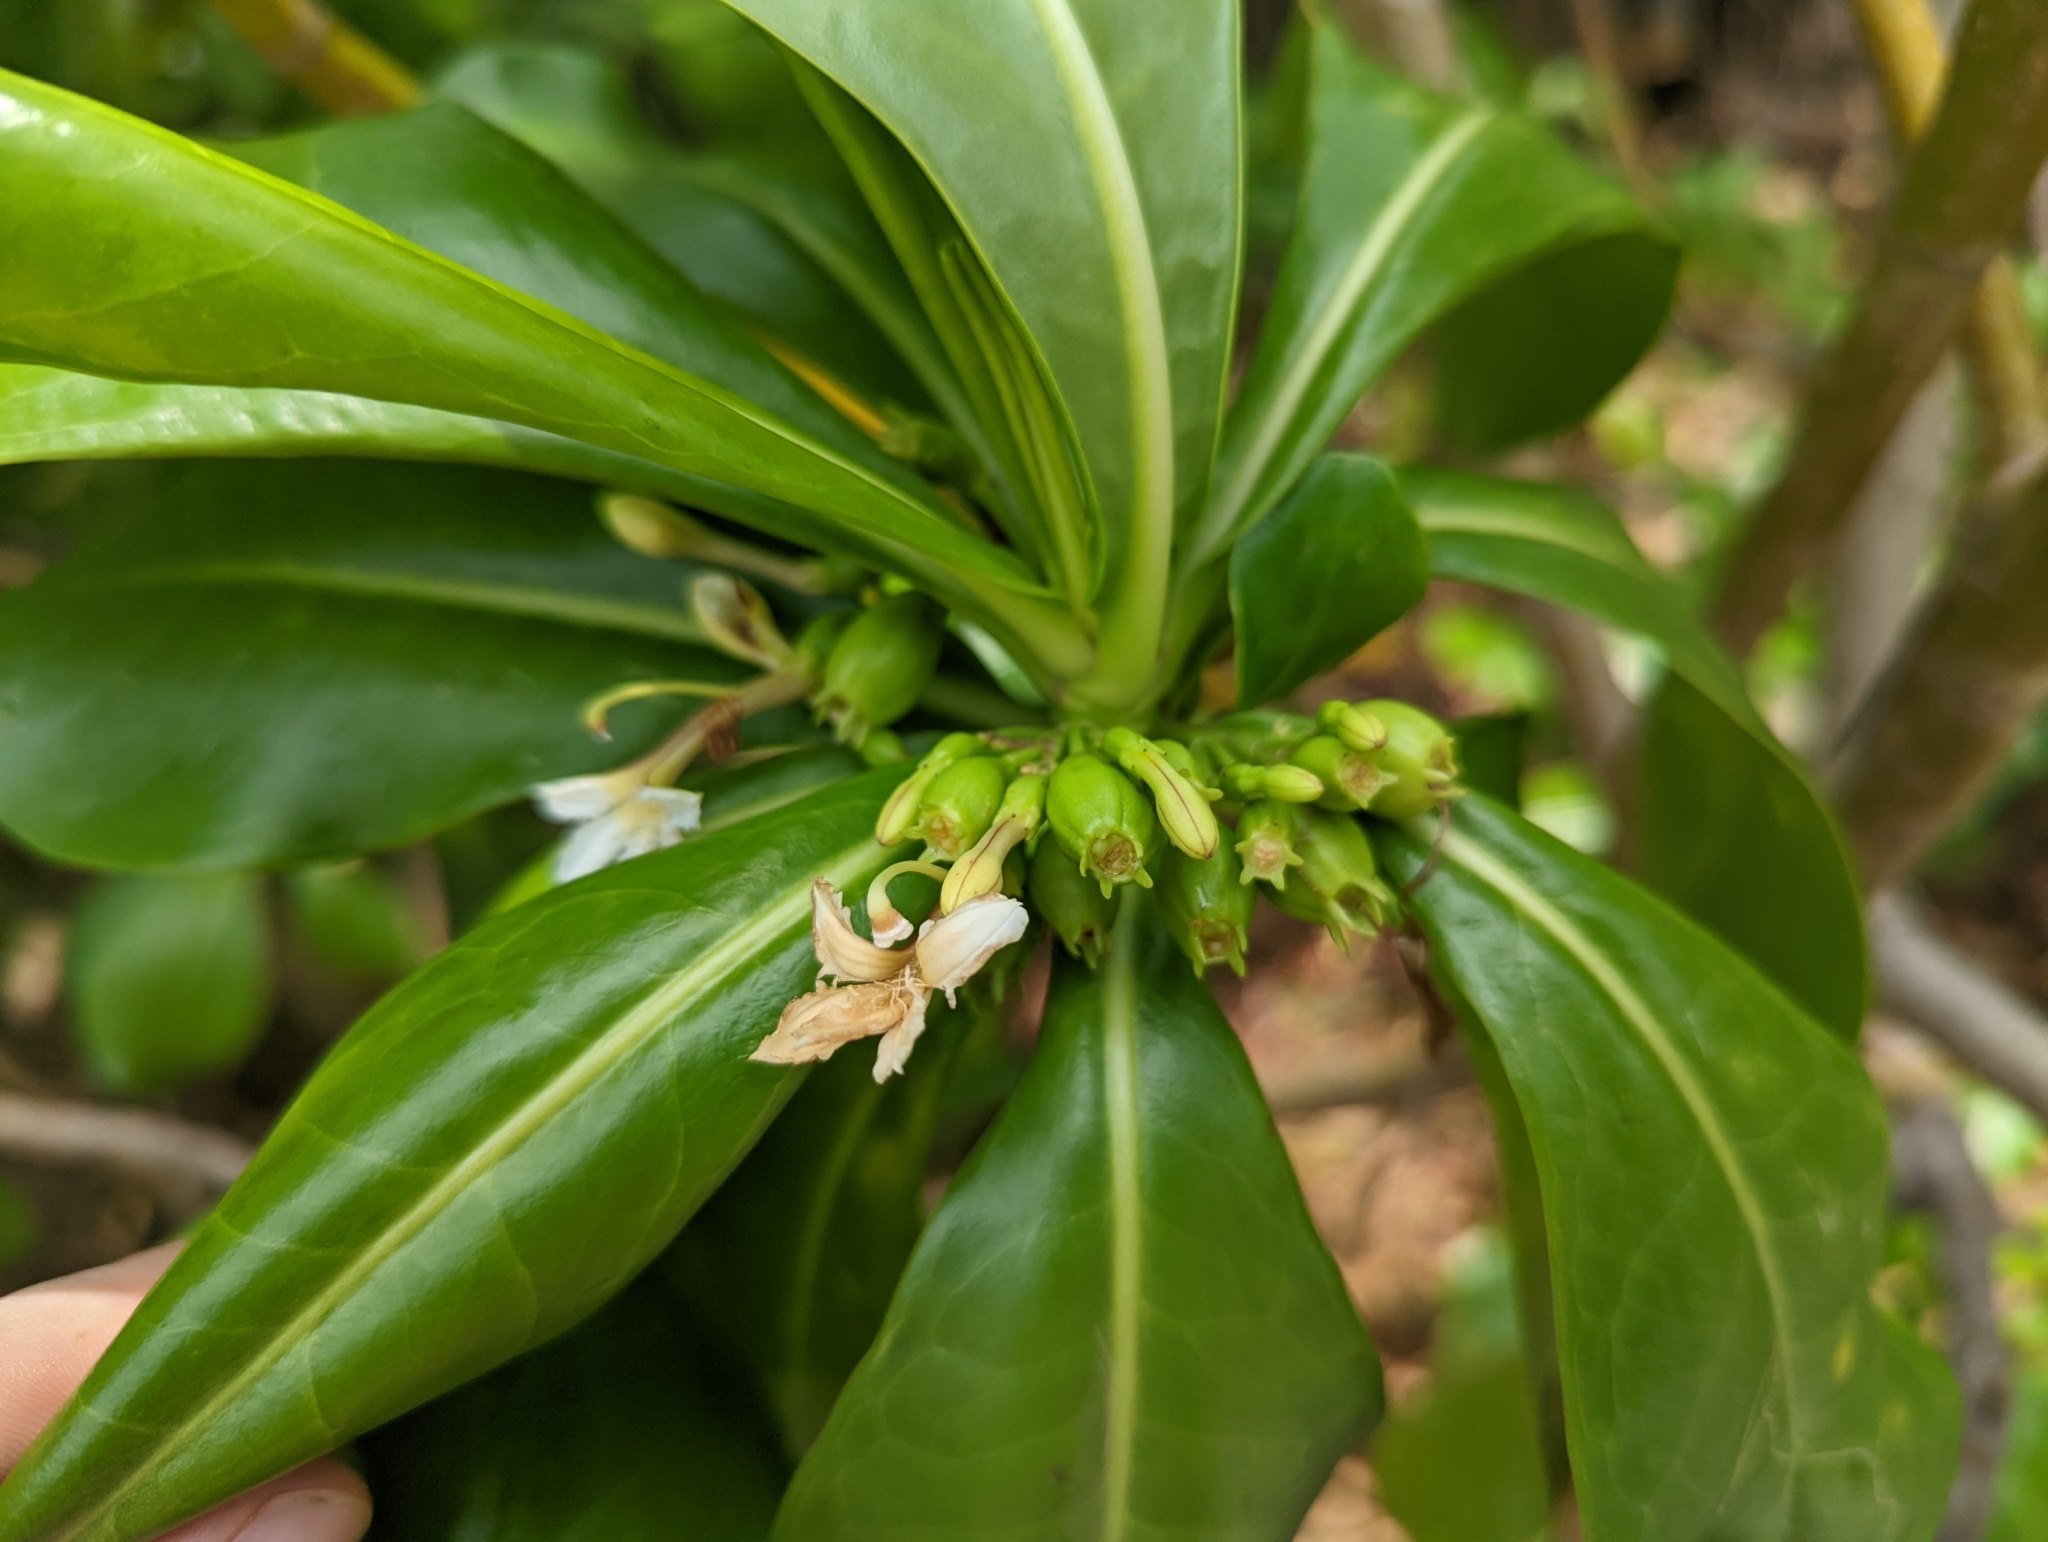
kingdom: Plantae
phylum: Tracheophyta
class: Magnoliopsida
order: Asterales
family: Goodeniaceae
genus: Scaevola
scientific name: Scaevola taccada
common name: Sea lettucetree
